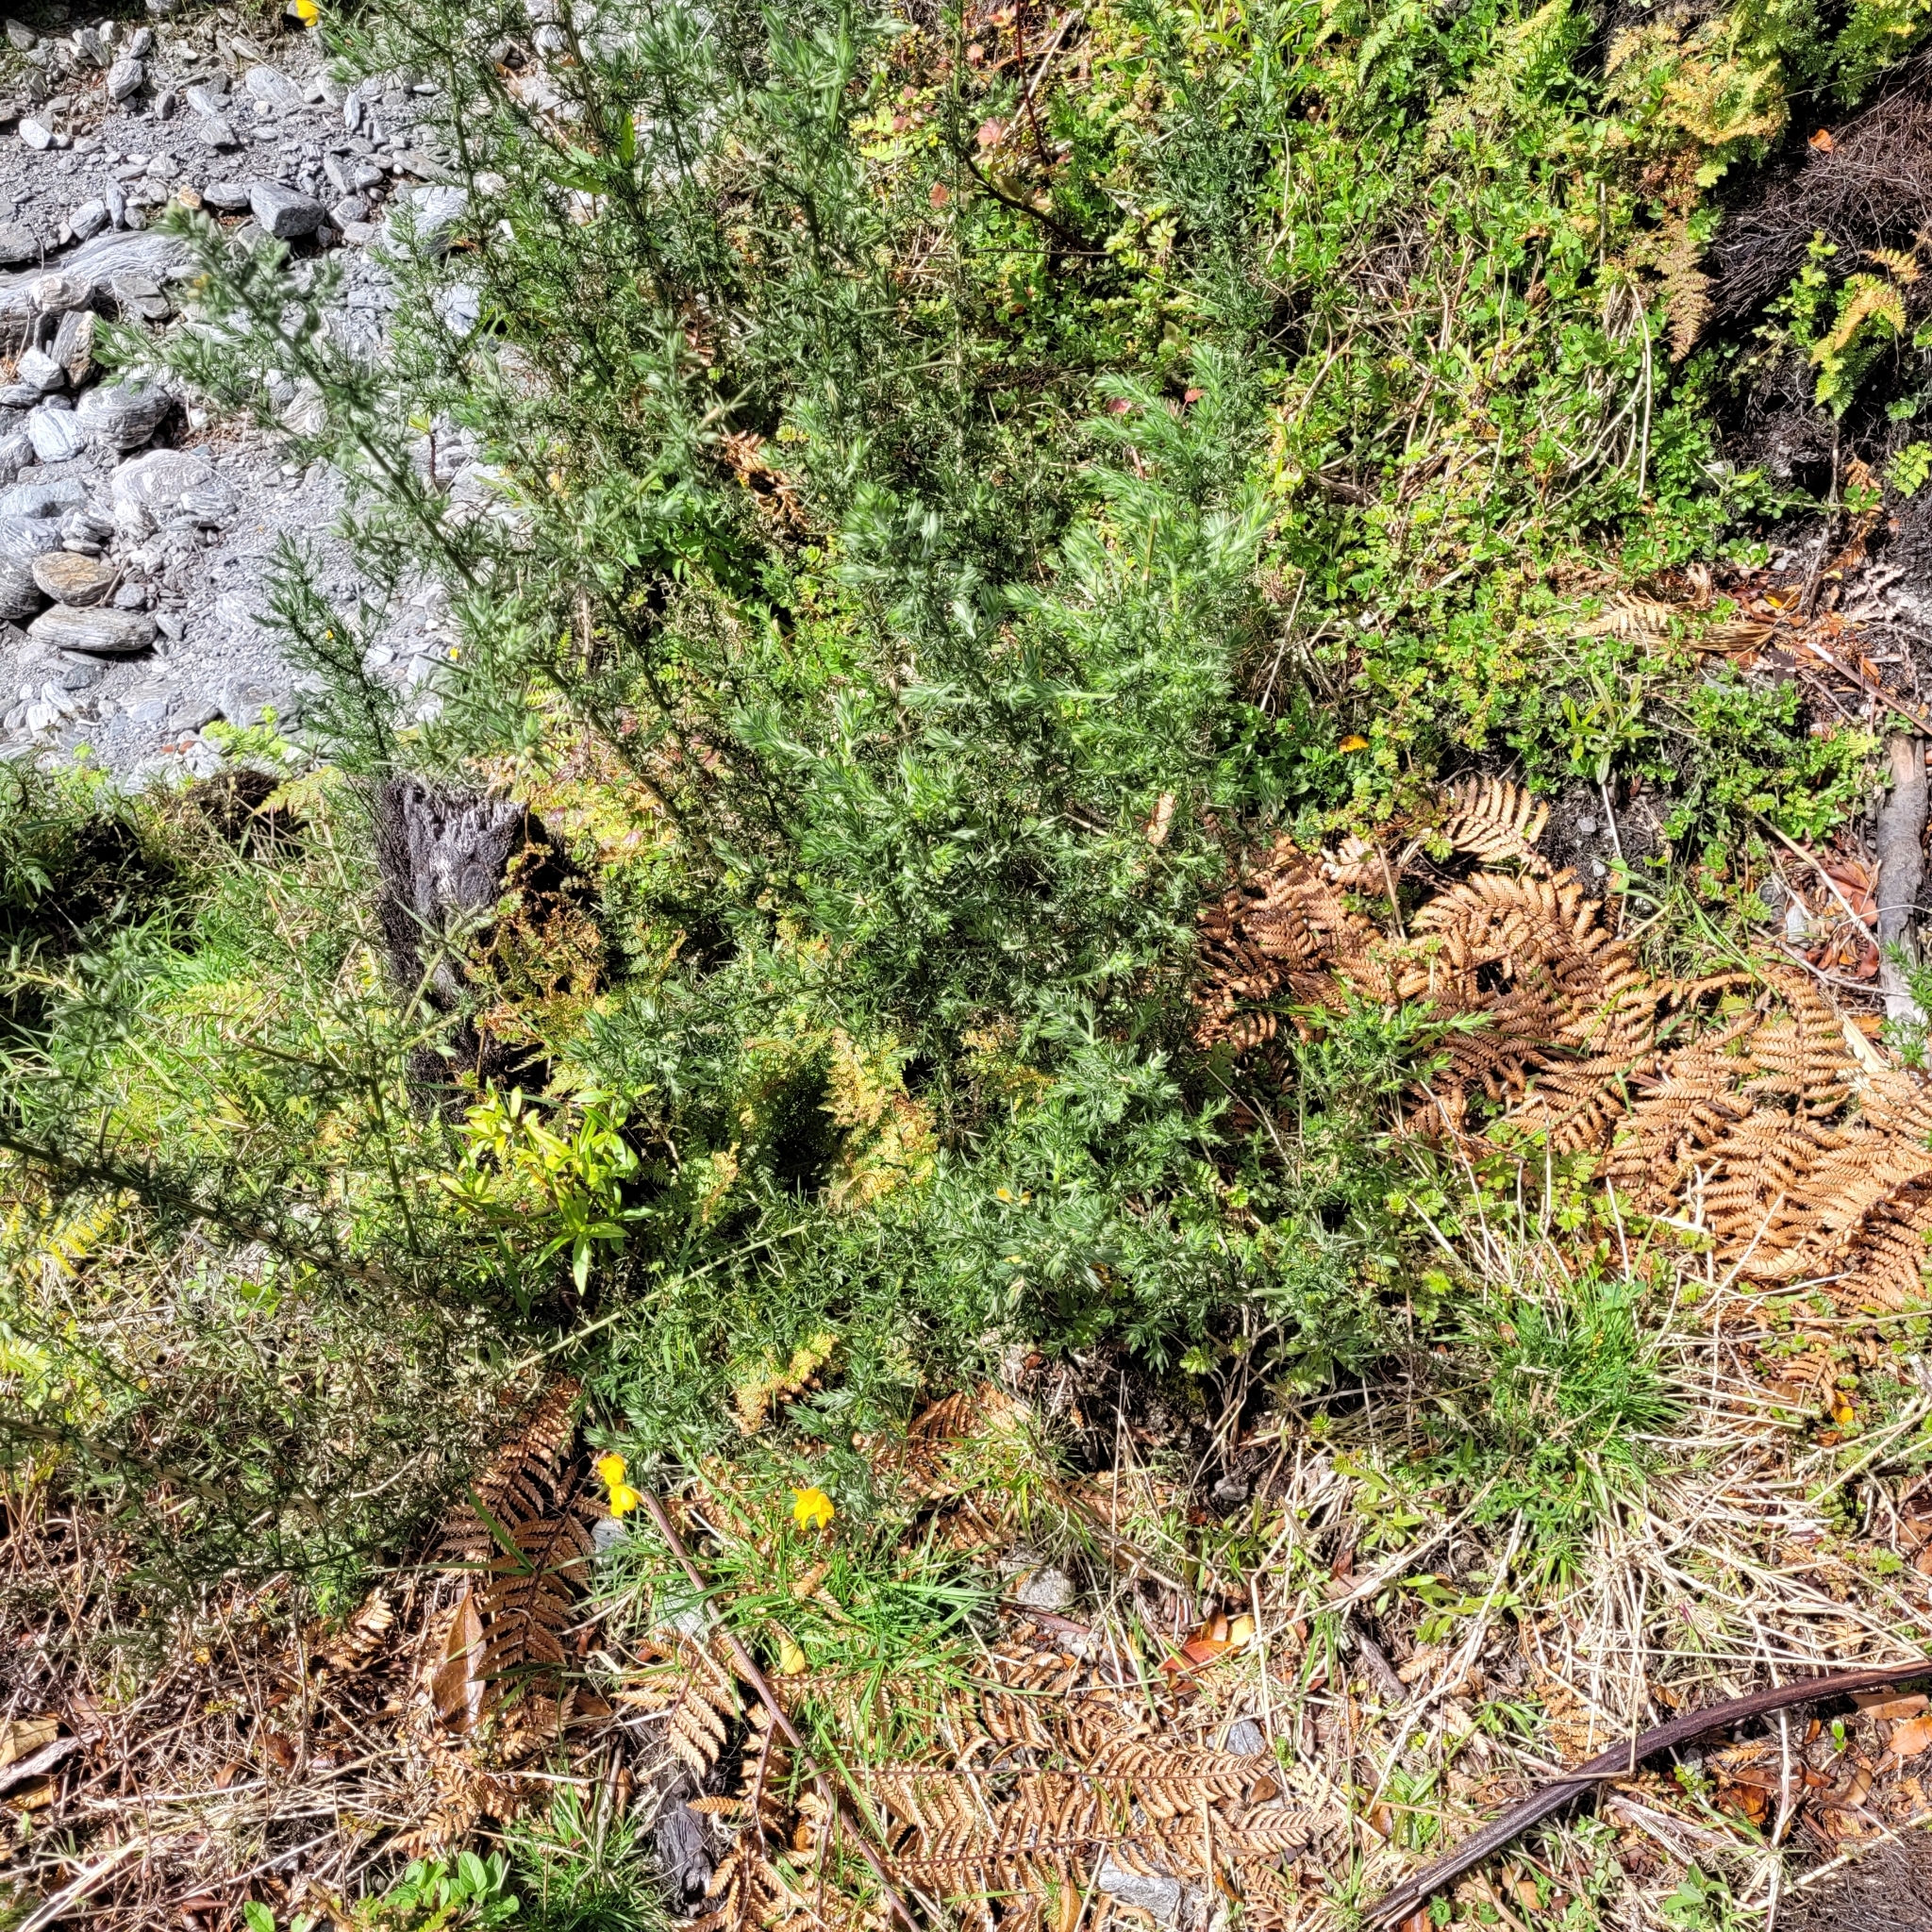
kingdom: Plantae
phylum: Tracheophyta
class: Magnoliopsida
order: Fabales
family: Fabaceae
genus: Ulex
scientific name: Ulex europaeus
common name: Common gorse
